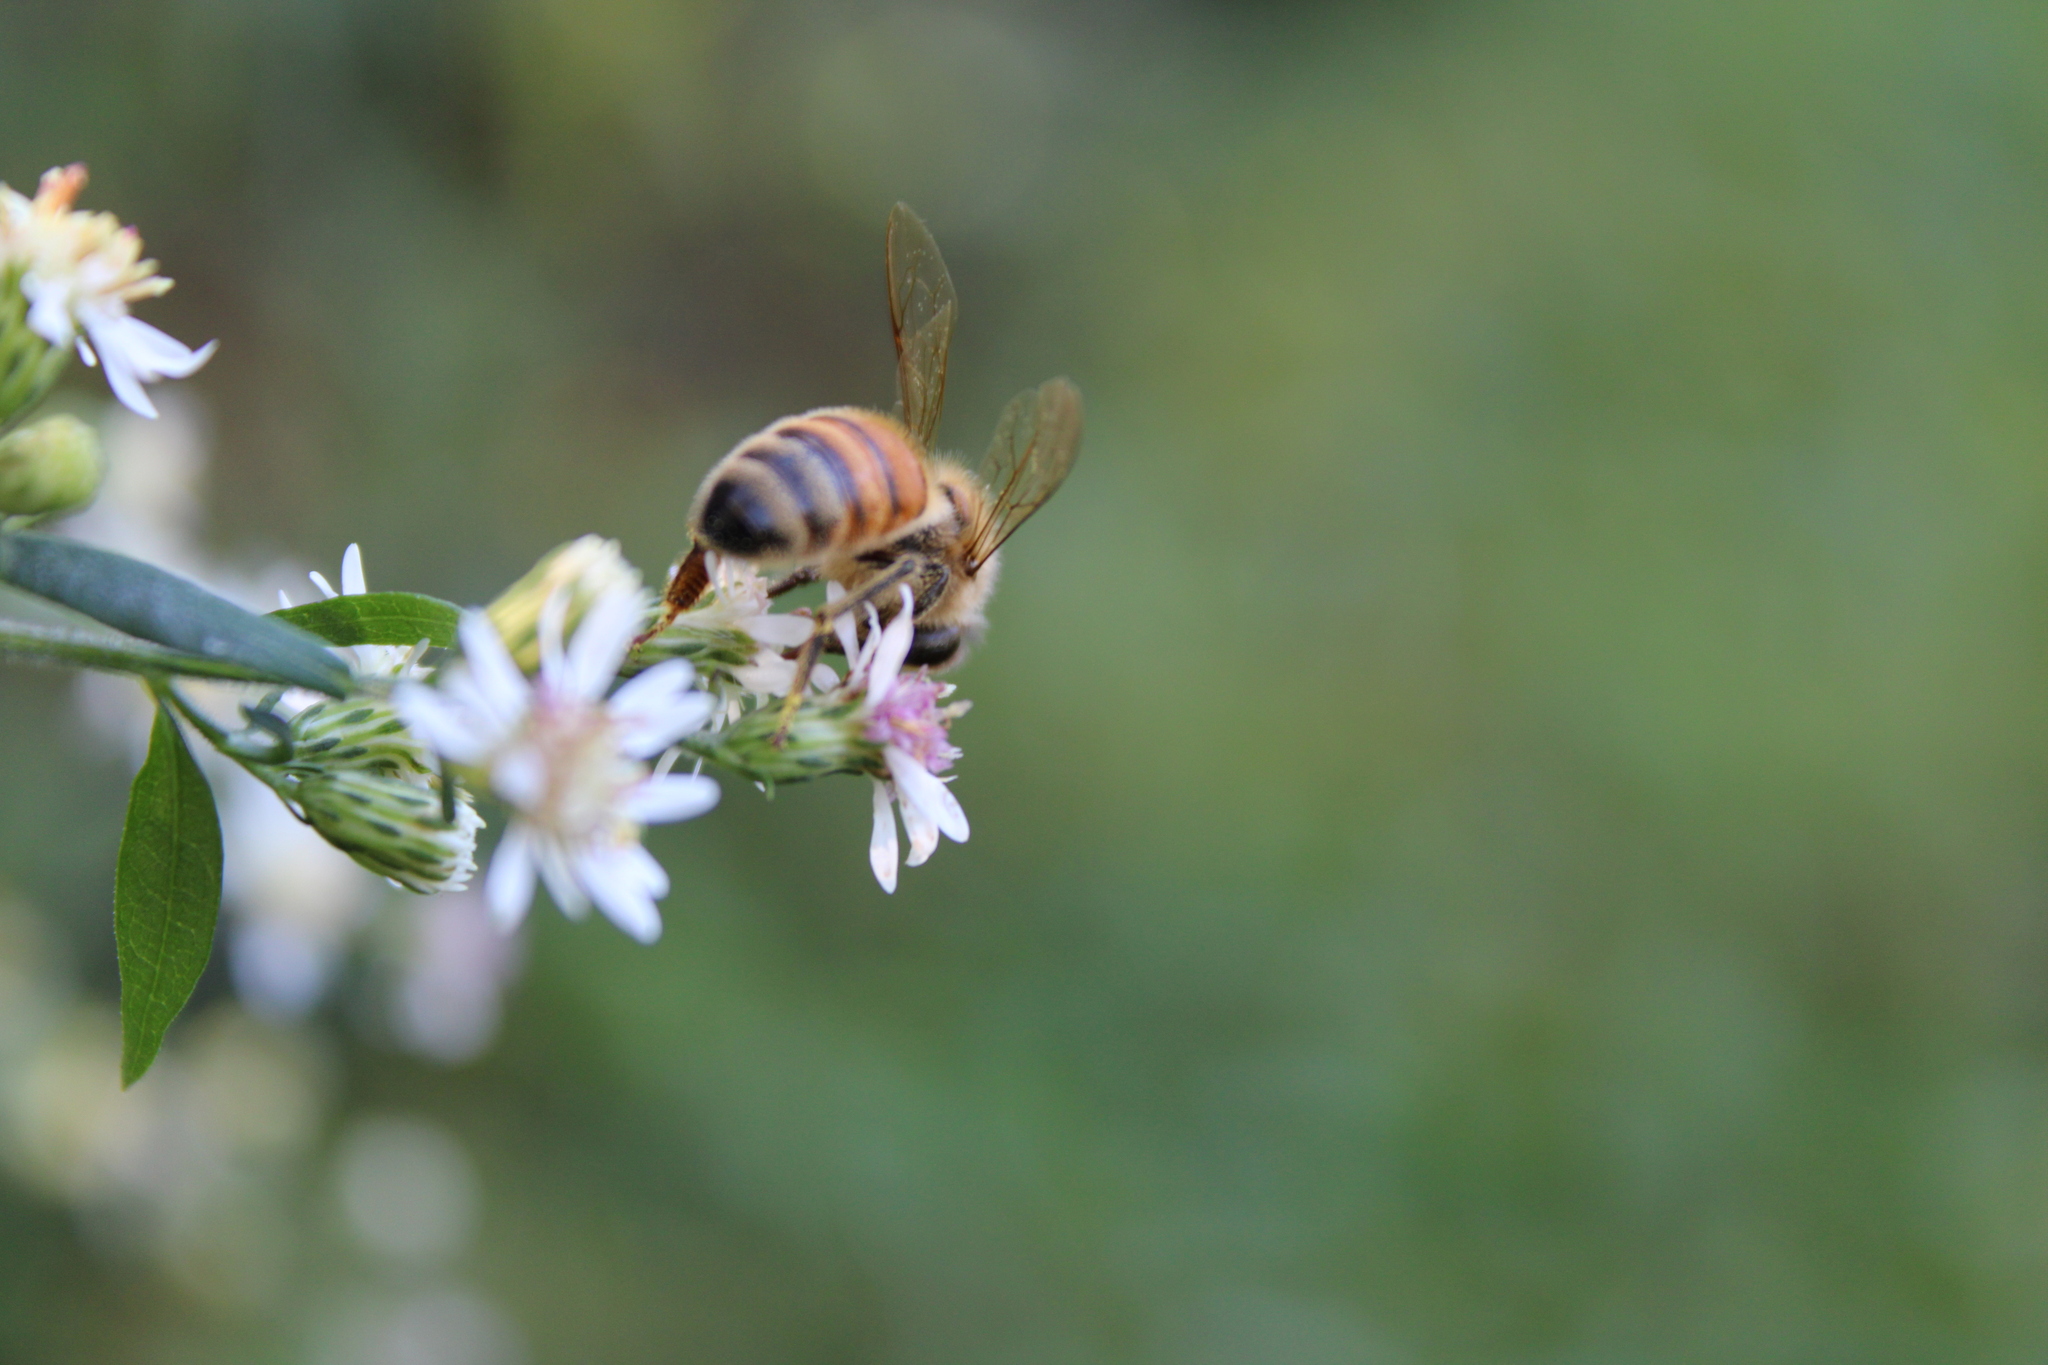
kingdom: Animalia
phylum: Arthropoda
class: Insecta
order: Hymenoptera
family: Apidae
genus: Apis
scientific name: Apis mellifera
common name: Honey bee
